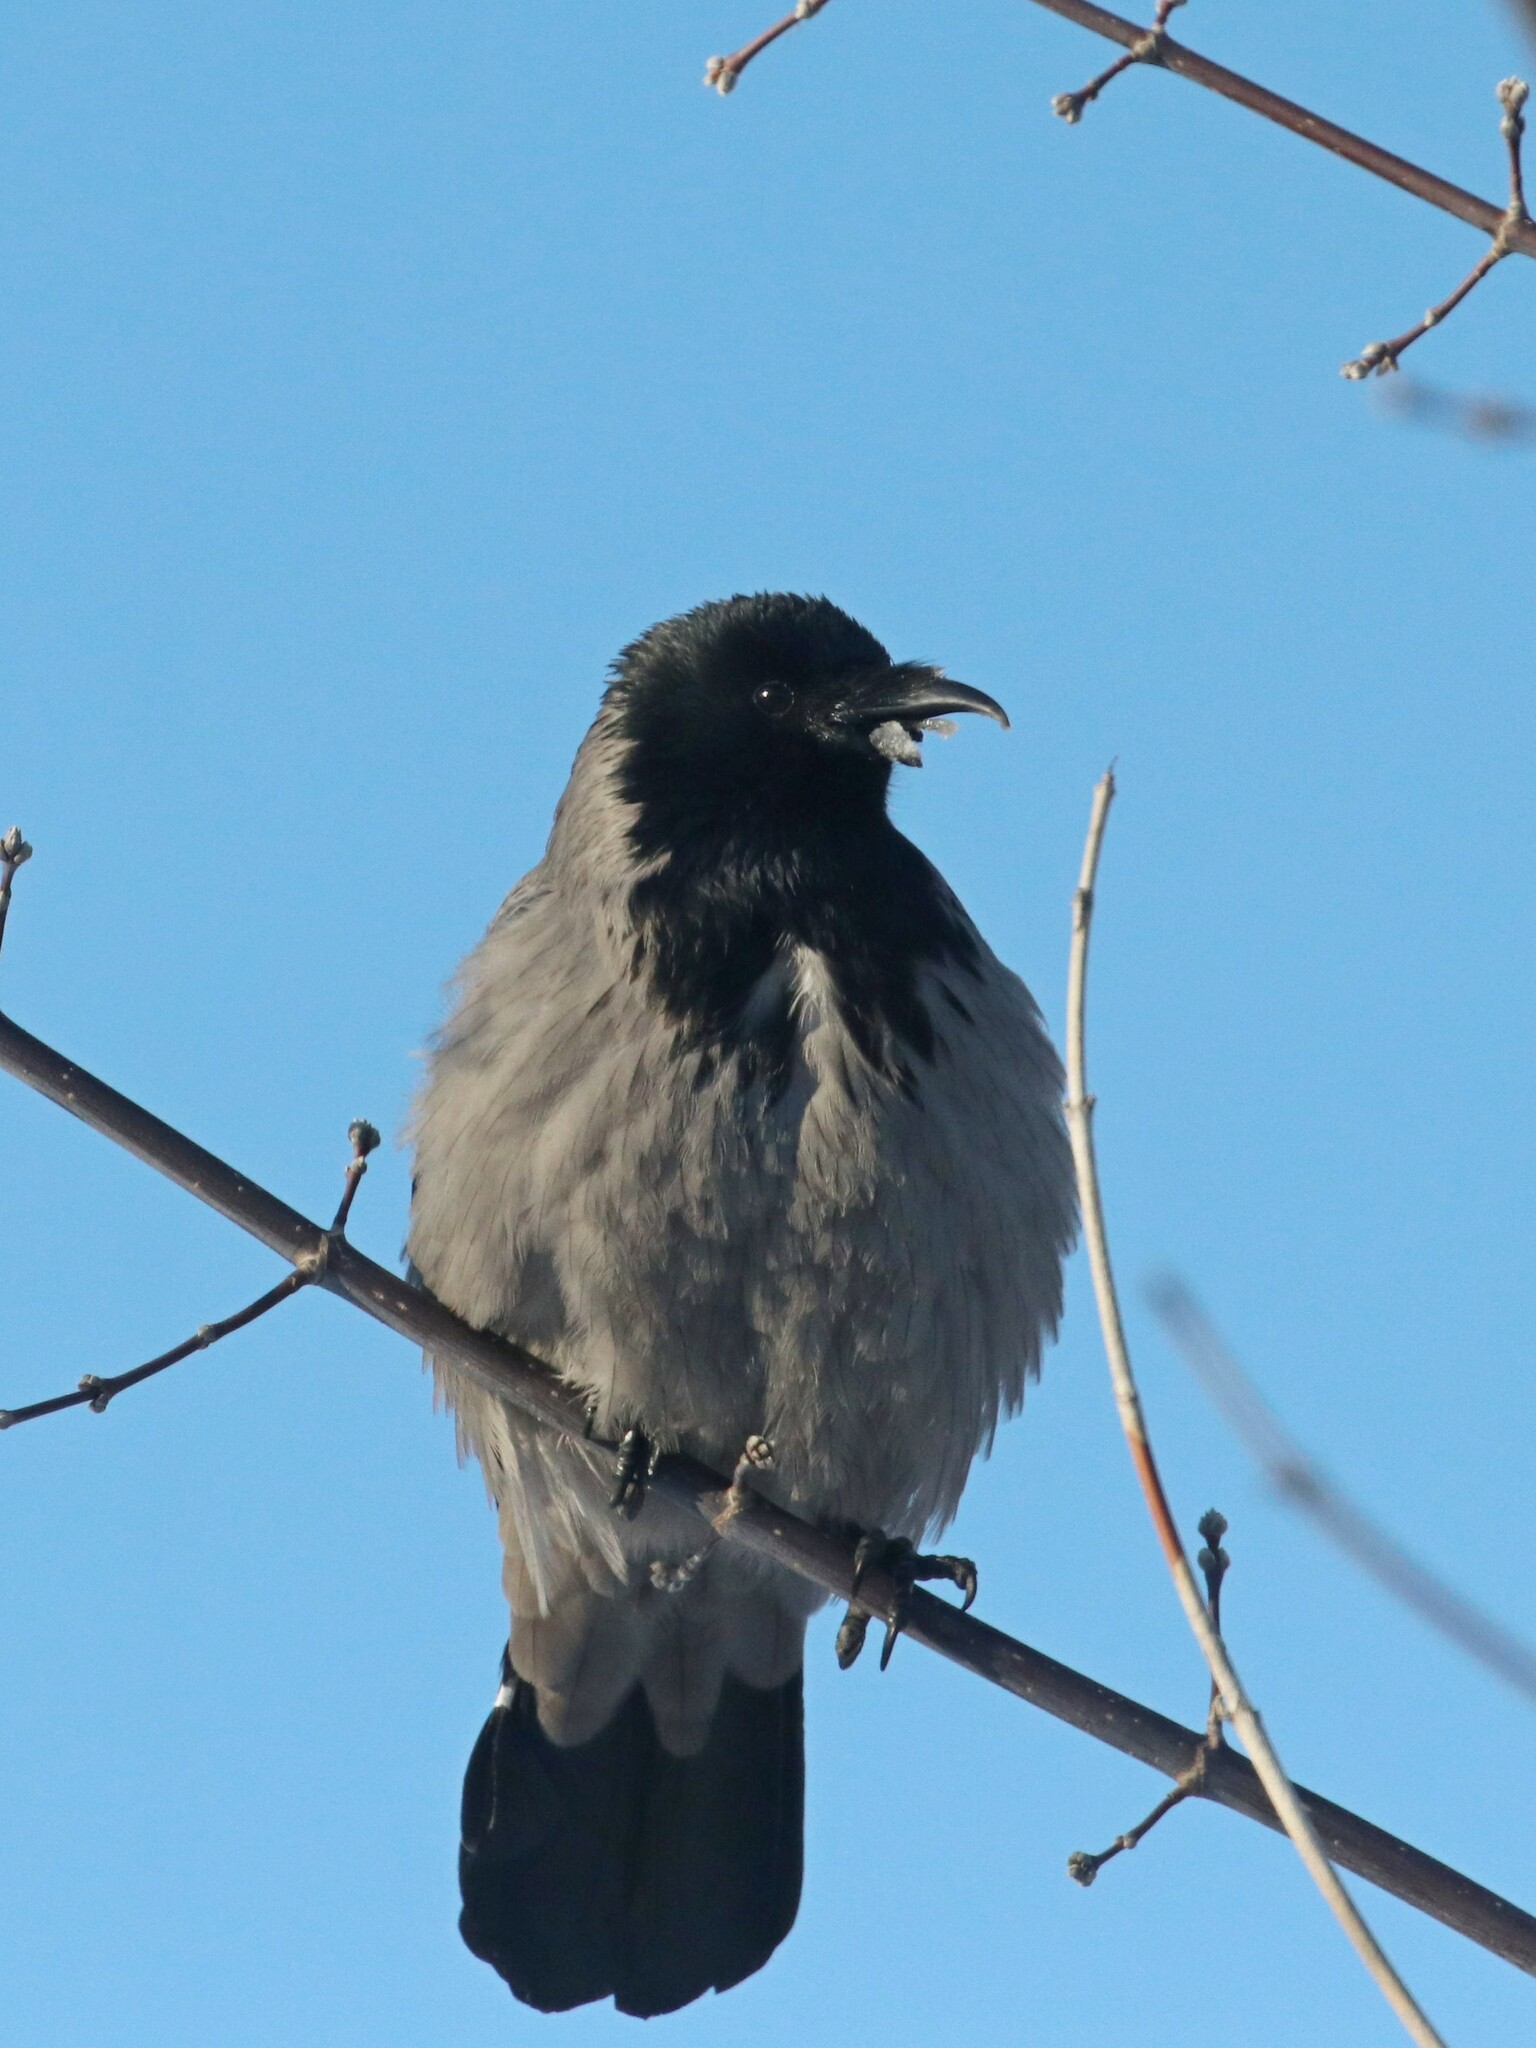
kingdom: Animalia
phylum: Chordata
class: Aves
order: Passeriformes
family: Corvidae
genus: Corvus
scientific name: Corvus cornix
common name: Hooded crow
